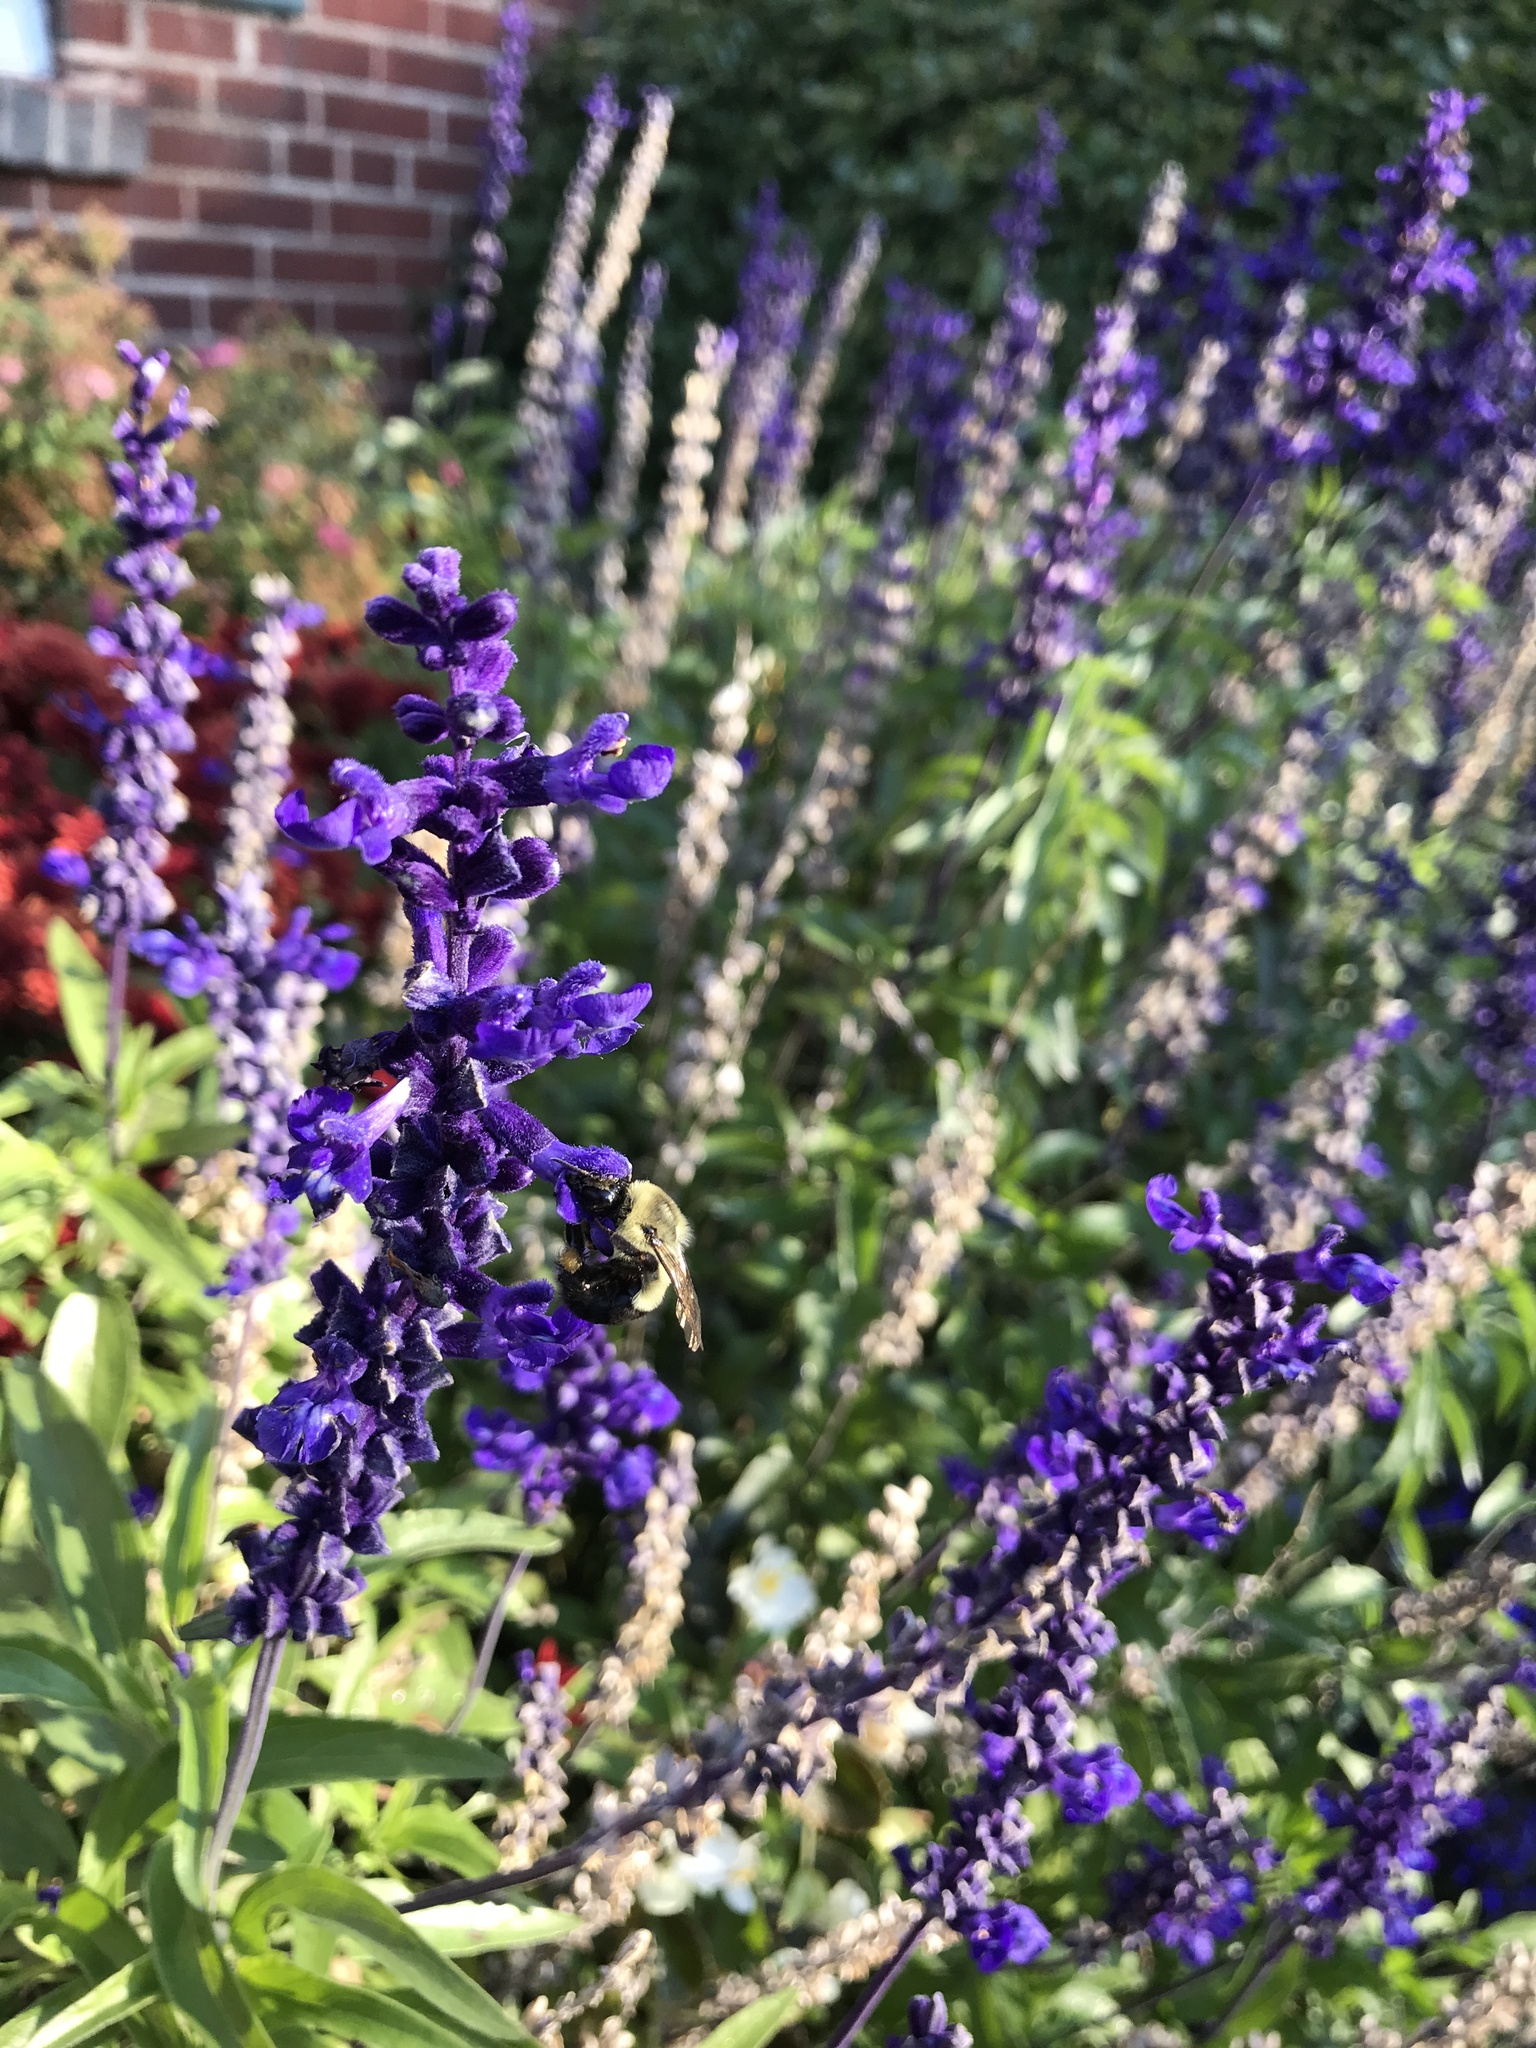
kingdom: Animalia
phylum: Arthropoda
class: Insecta
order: Hymenoptera
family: Apidae
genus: Bombus
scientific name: Bombus impatiens
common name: Common eastern bumble bee
